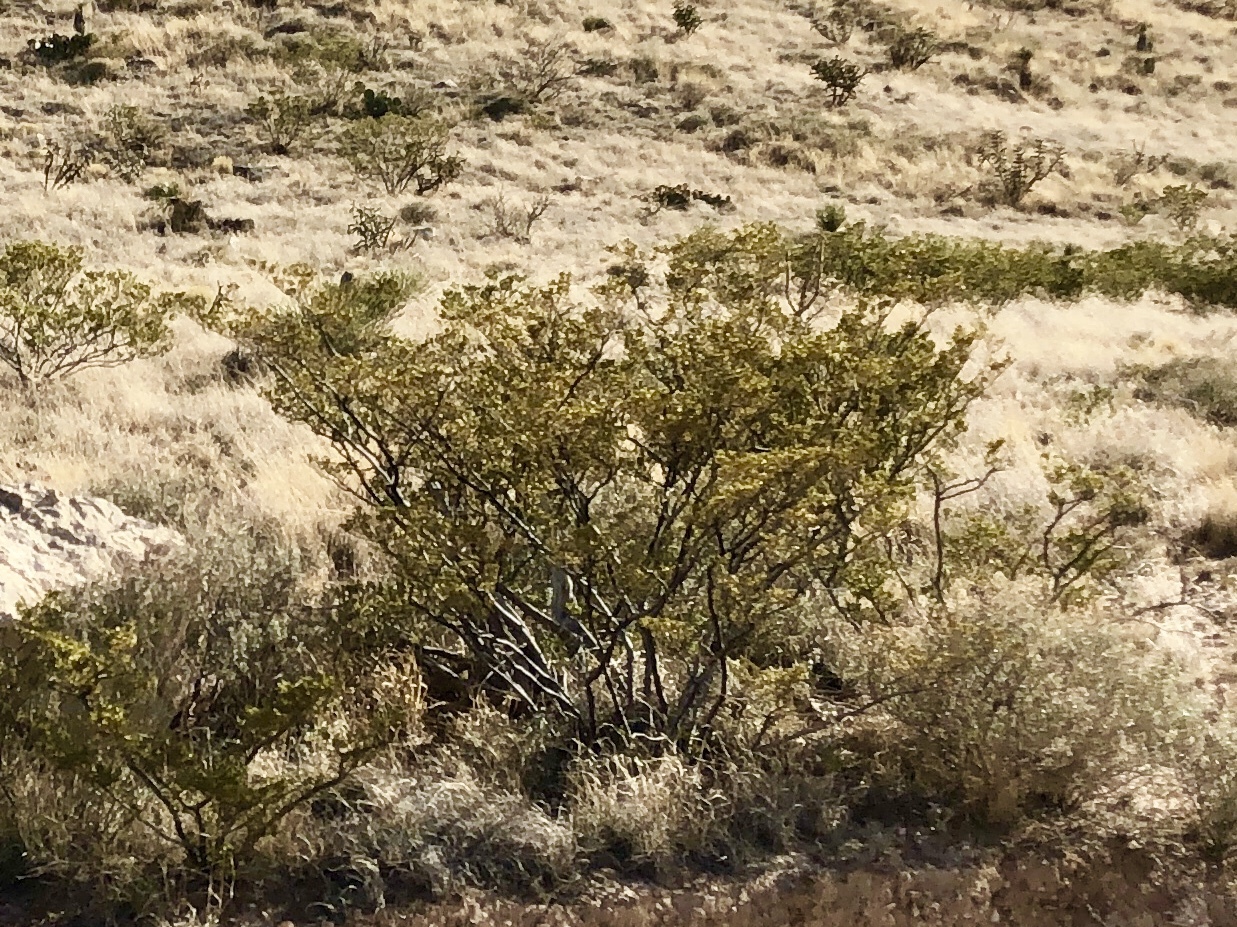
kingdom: Plantae
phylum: Tracheophyta
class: Magnoliopsida
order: Zygophyllales
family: Zygophyllaceae
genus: Larrea
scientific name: Larrea tridentata
